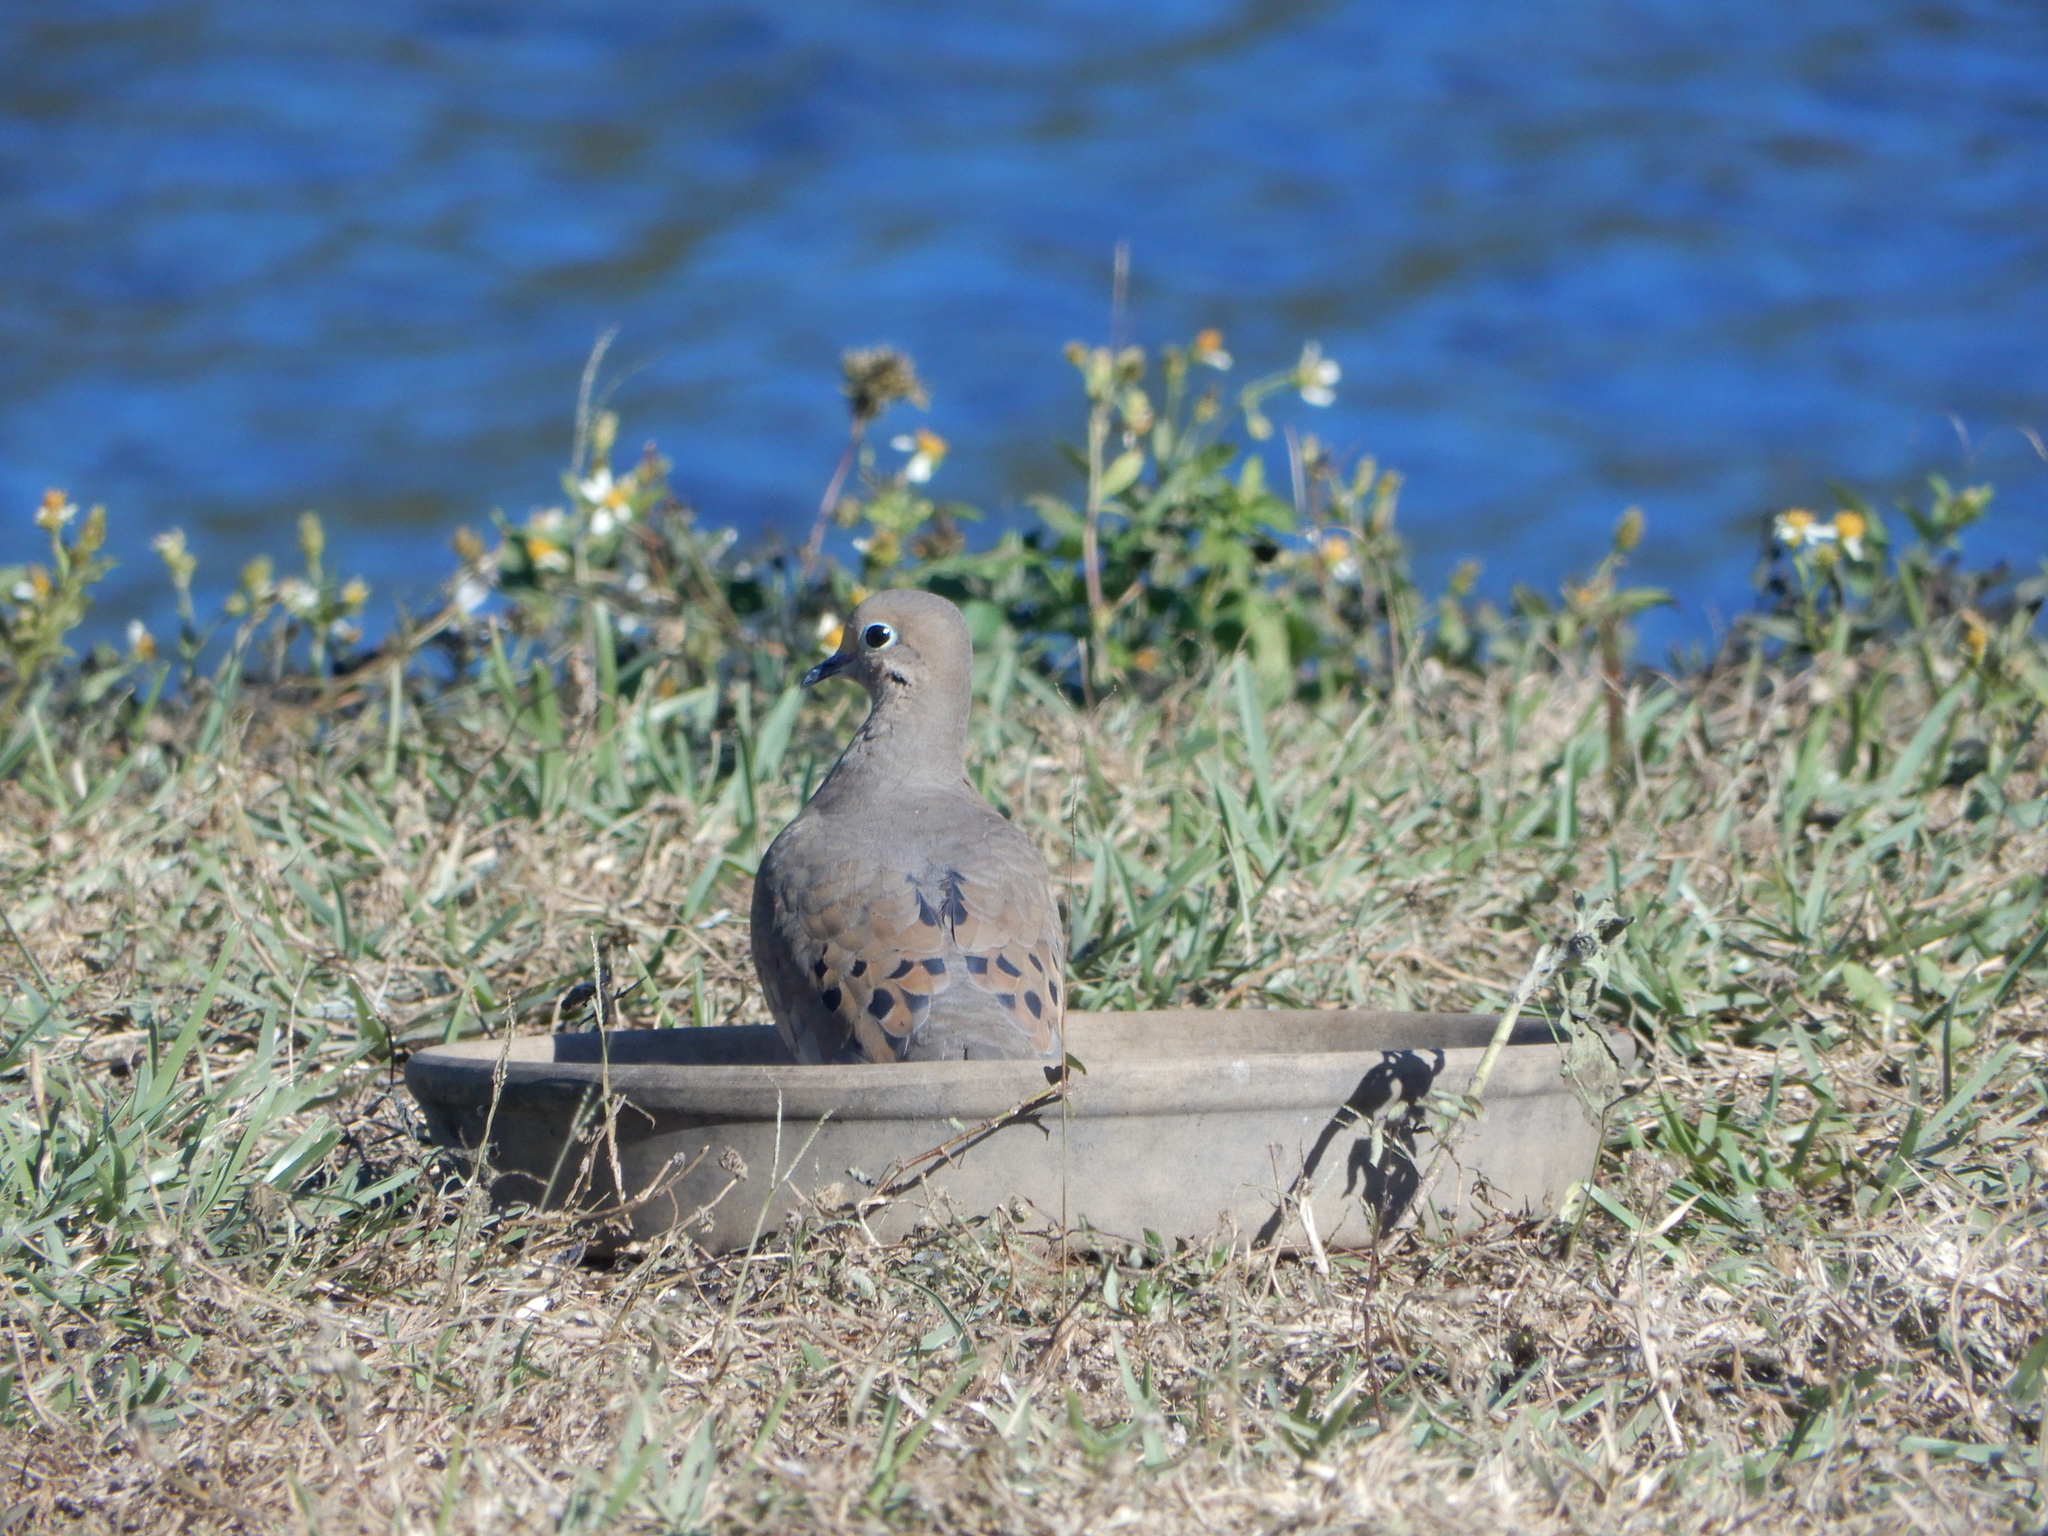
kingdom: Animalia
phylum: Chordata
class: Aves
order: Columbiformes
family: Columbidae
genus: Zenaida
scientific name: Zenaida macroura
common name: Mourning dove
